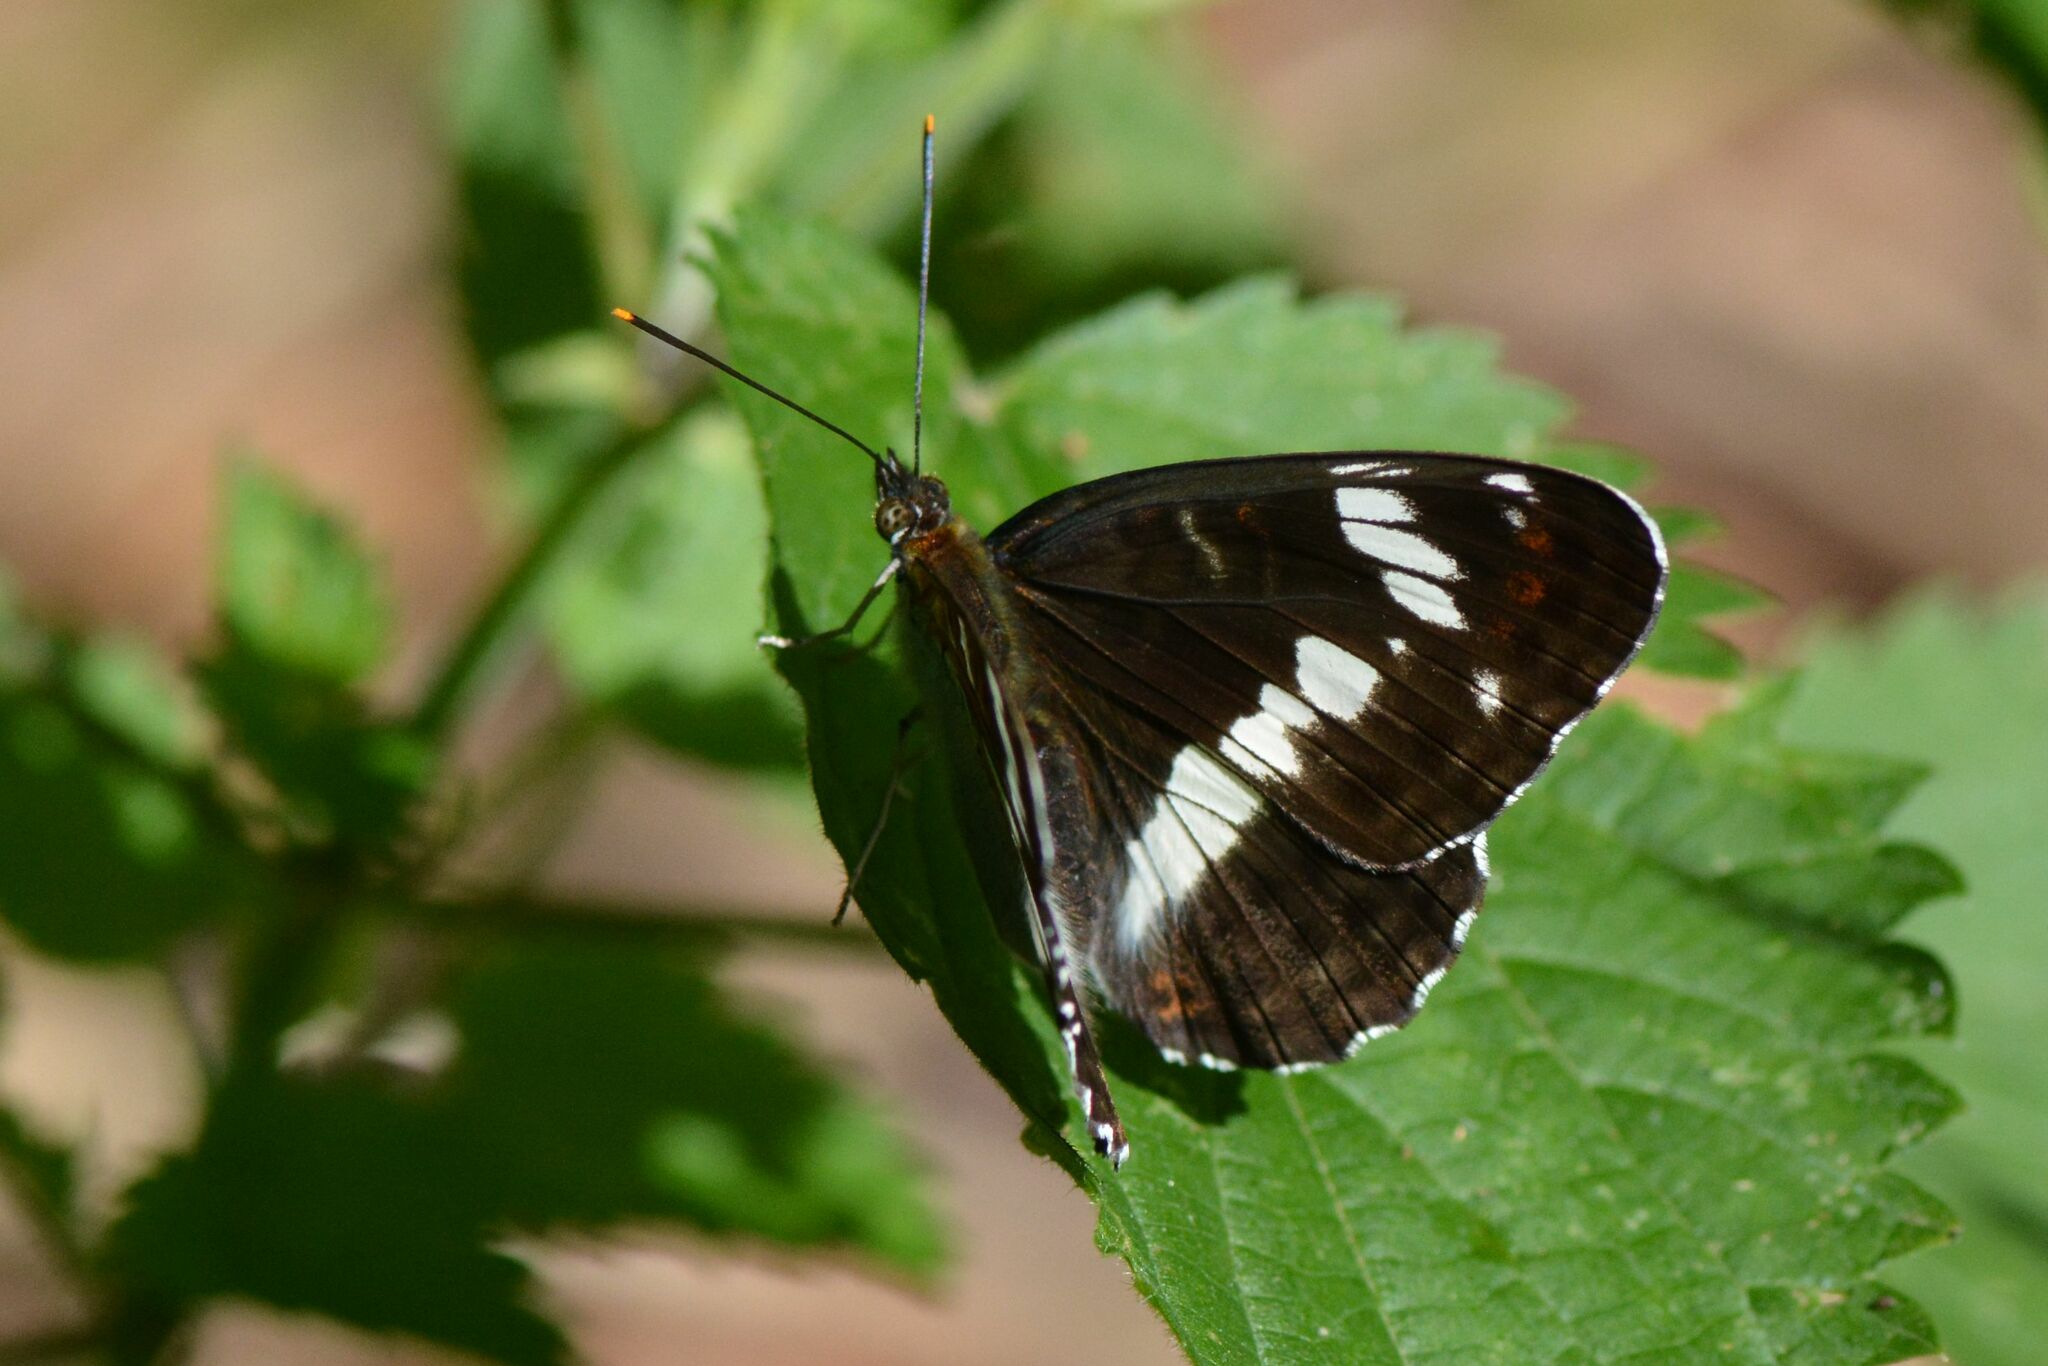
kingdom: Animalia
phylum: Arthropoda
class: Insecta
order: Lepidoptera
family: Nymphalidae
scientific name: Nymphalidae
